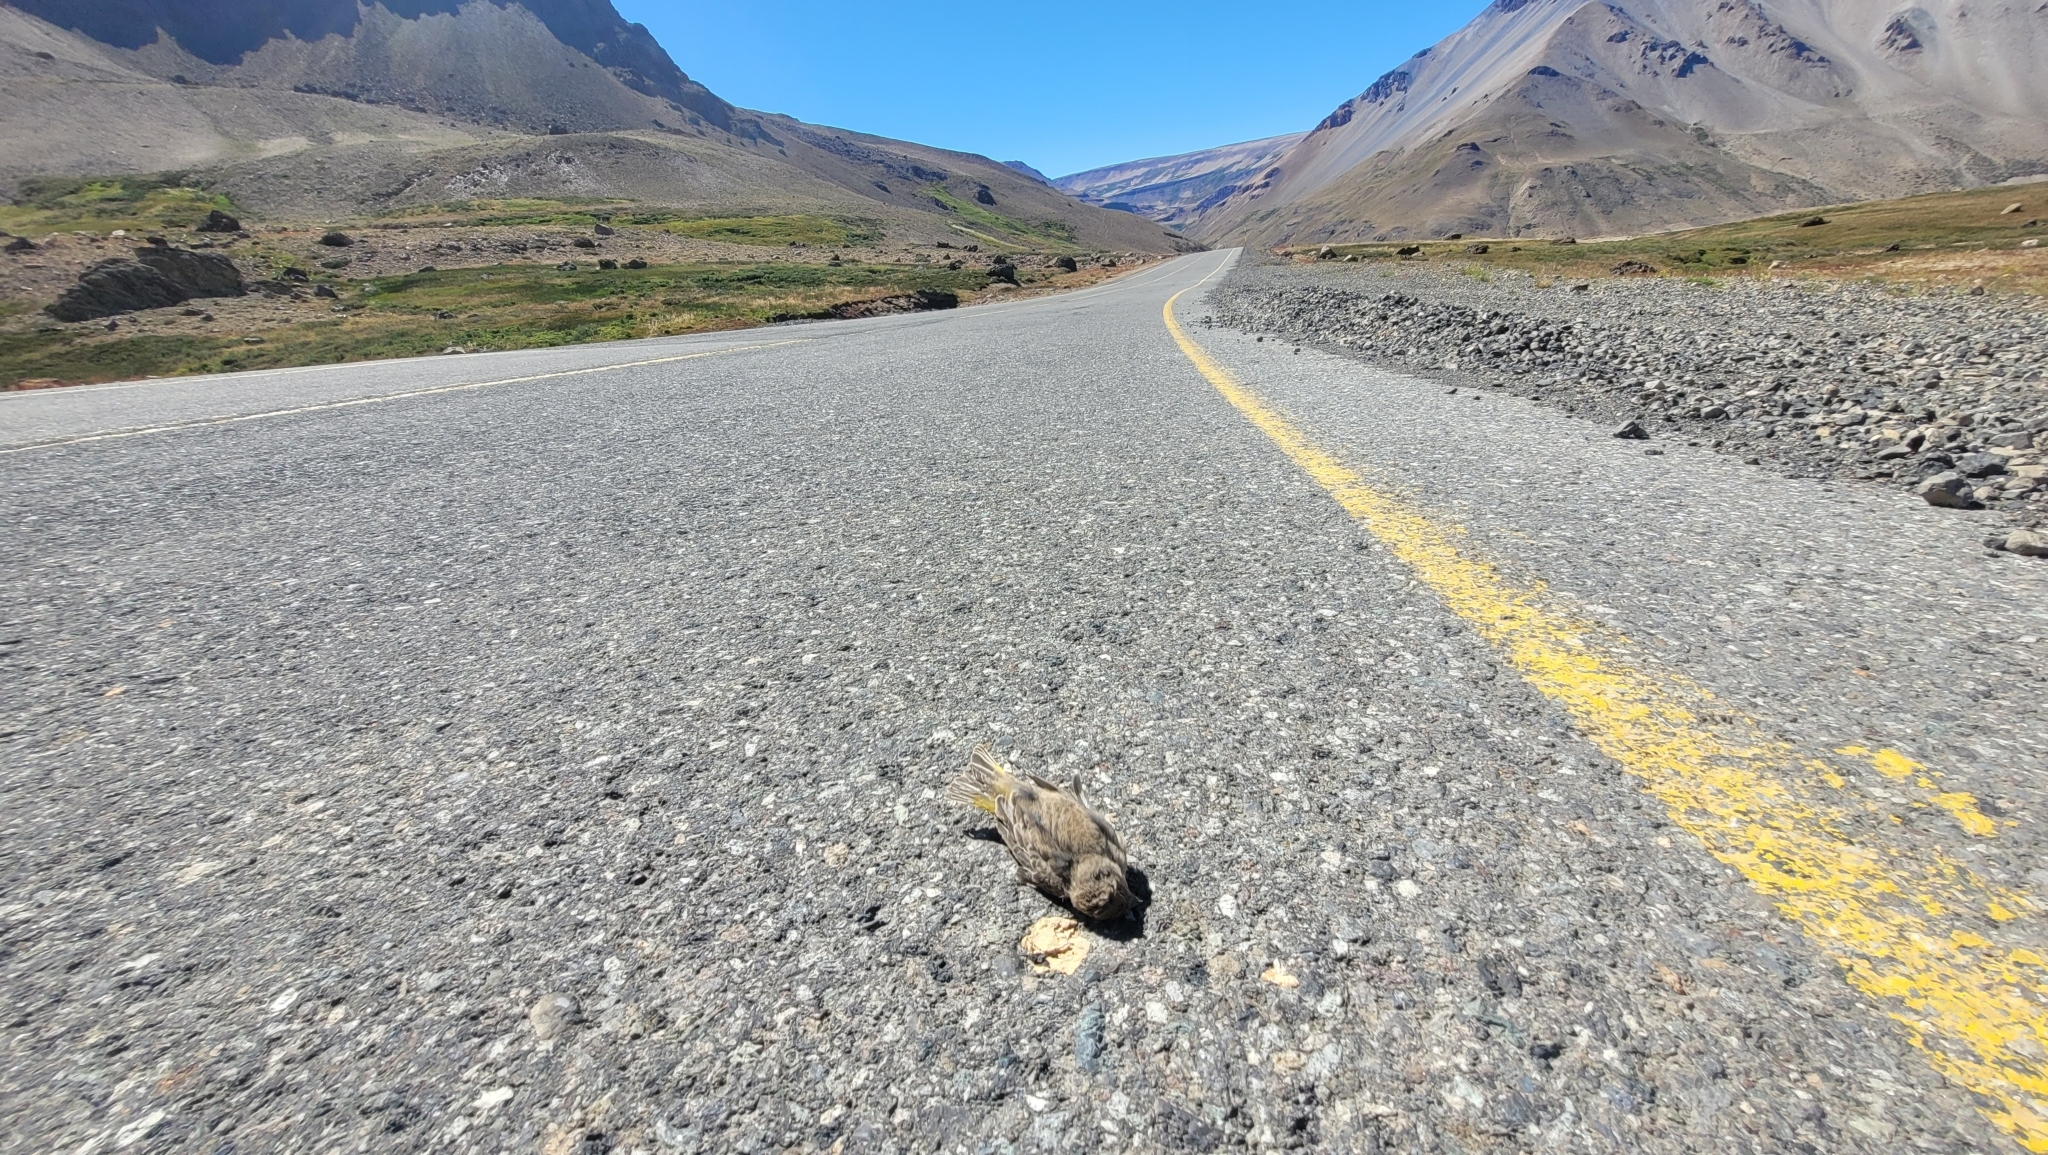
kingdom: Animalia
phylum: Chordata
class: Aves
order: Passeriformes
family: Thraupidae
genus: Sicalis
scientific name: Sicalis auriventris
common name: Greater yellow finch
